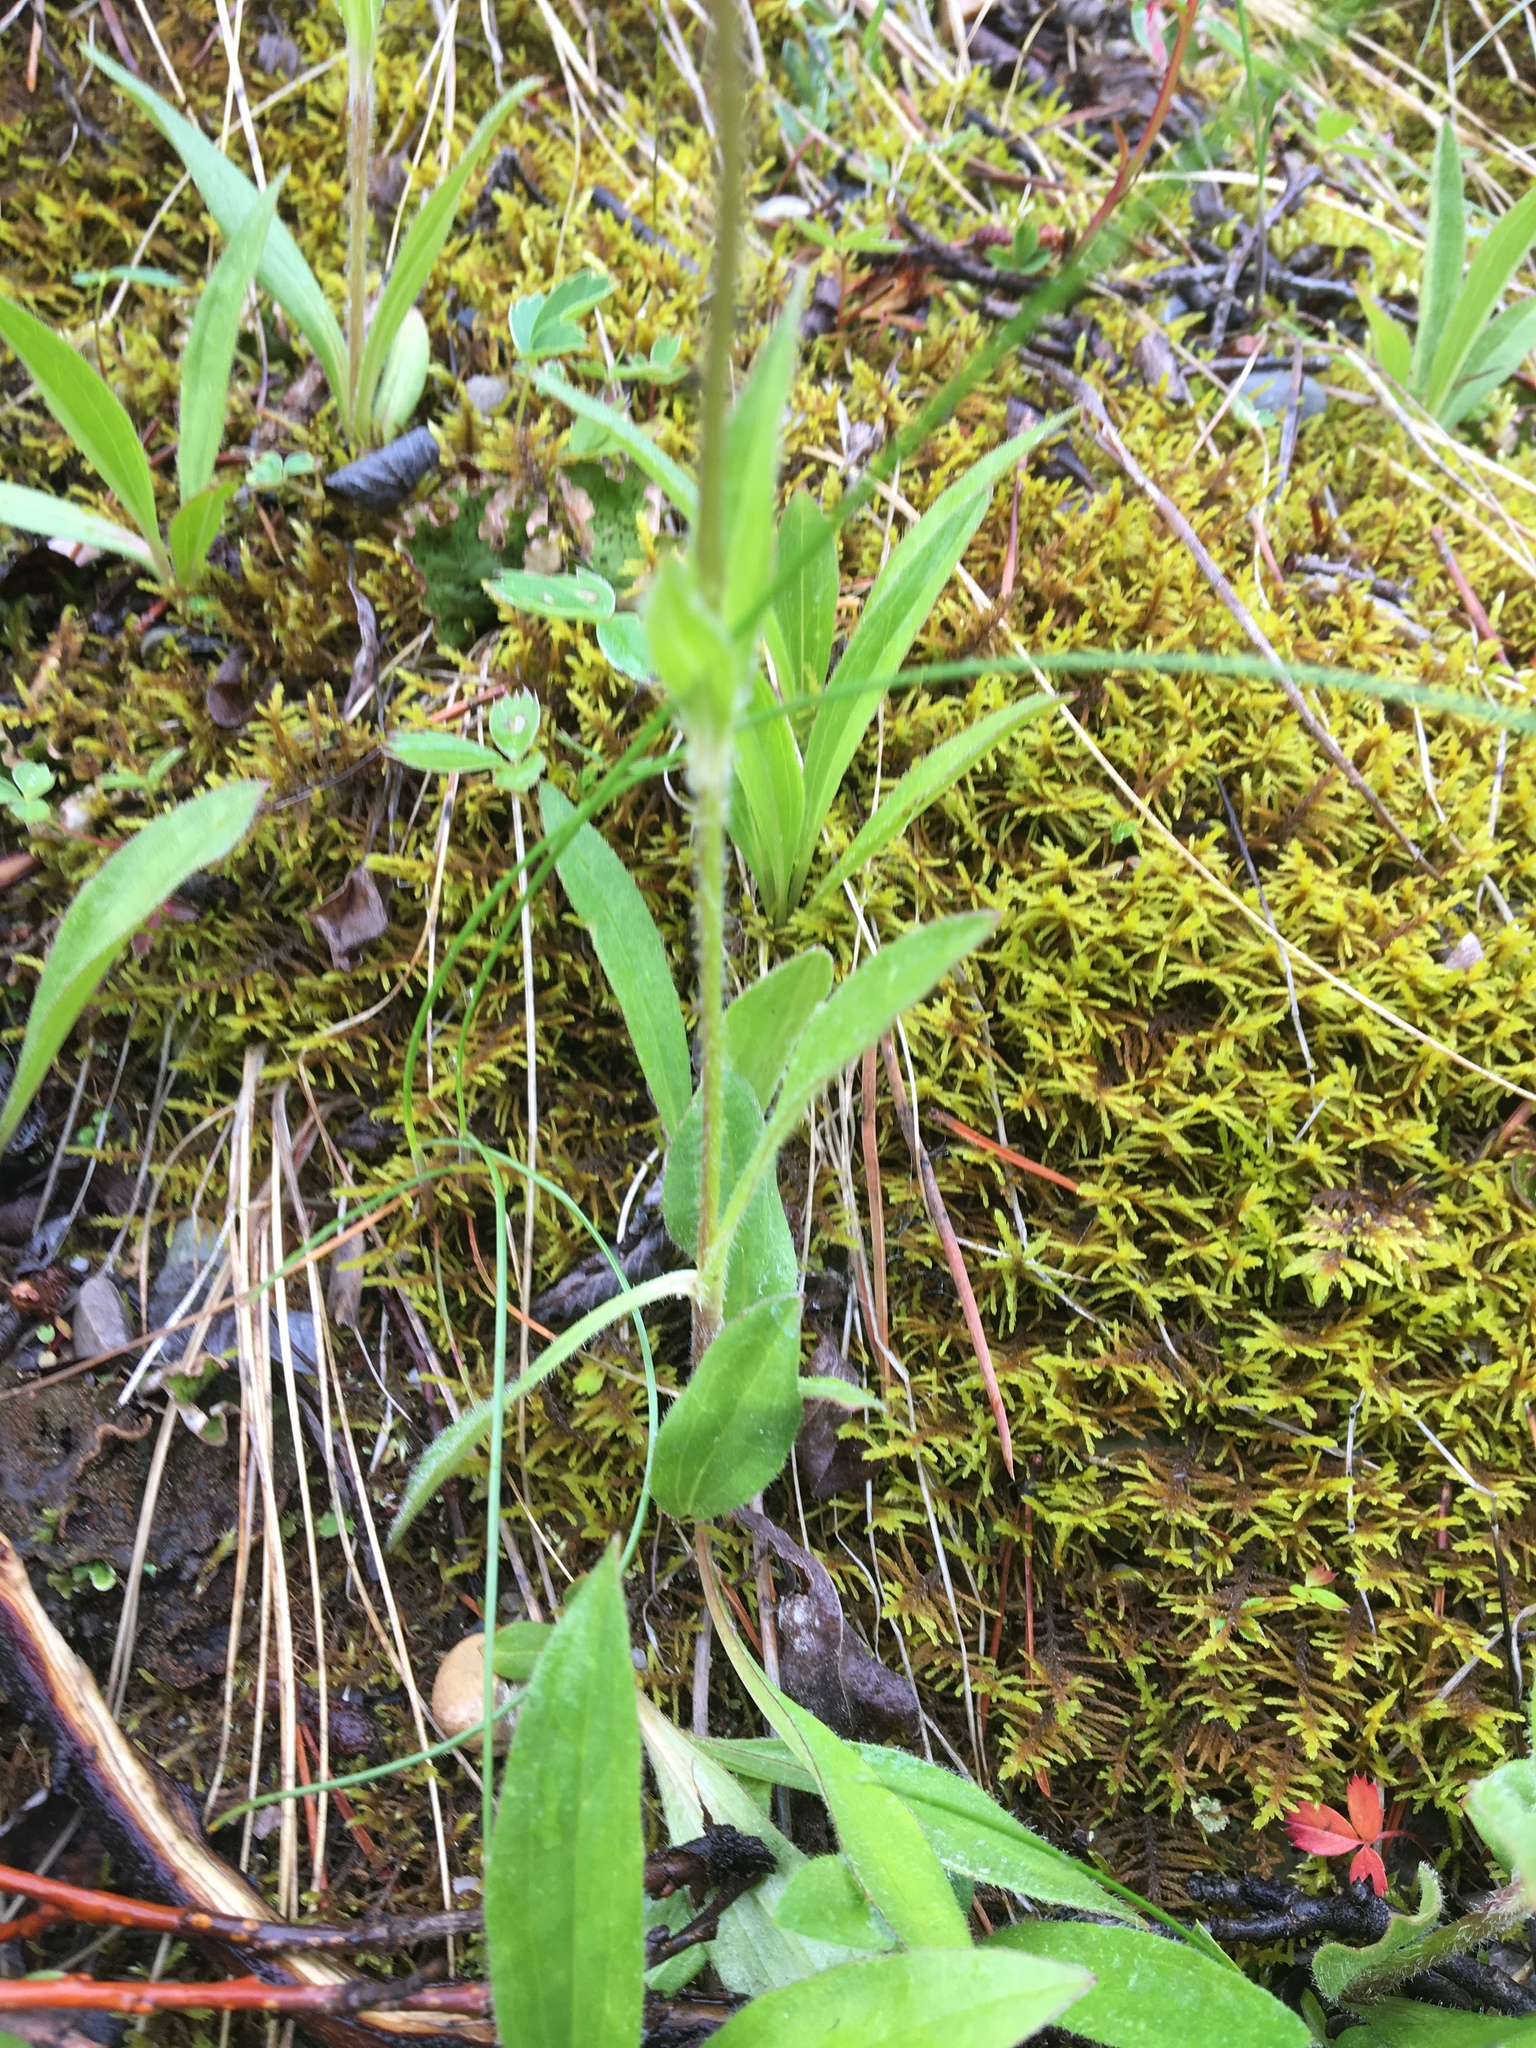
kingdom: Plantae
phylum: Tracheophyta
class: Magnoliopsida
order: Asterales
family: Asteraceae
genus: Arnica
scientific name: Arnica fulgens
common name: Foothill arnica
